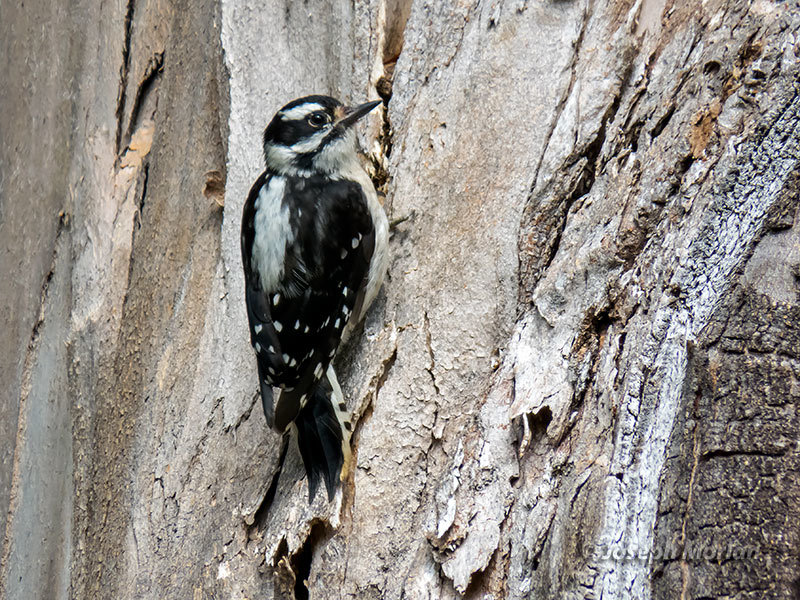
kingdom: Animalia
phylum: Chordata
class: Aves
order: Piciformes
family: Picidae
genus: Dryobates
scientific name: Dryobates pubescens
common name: Downy woodpecker
